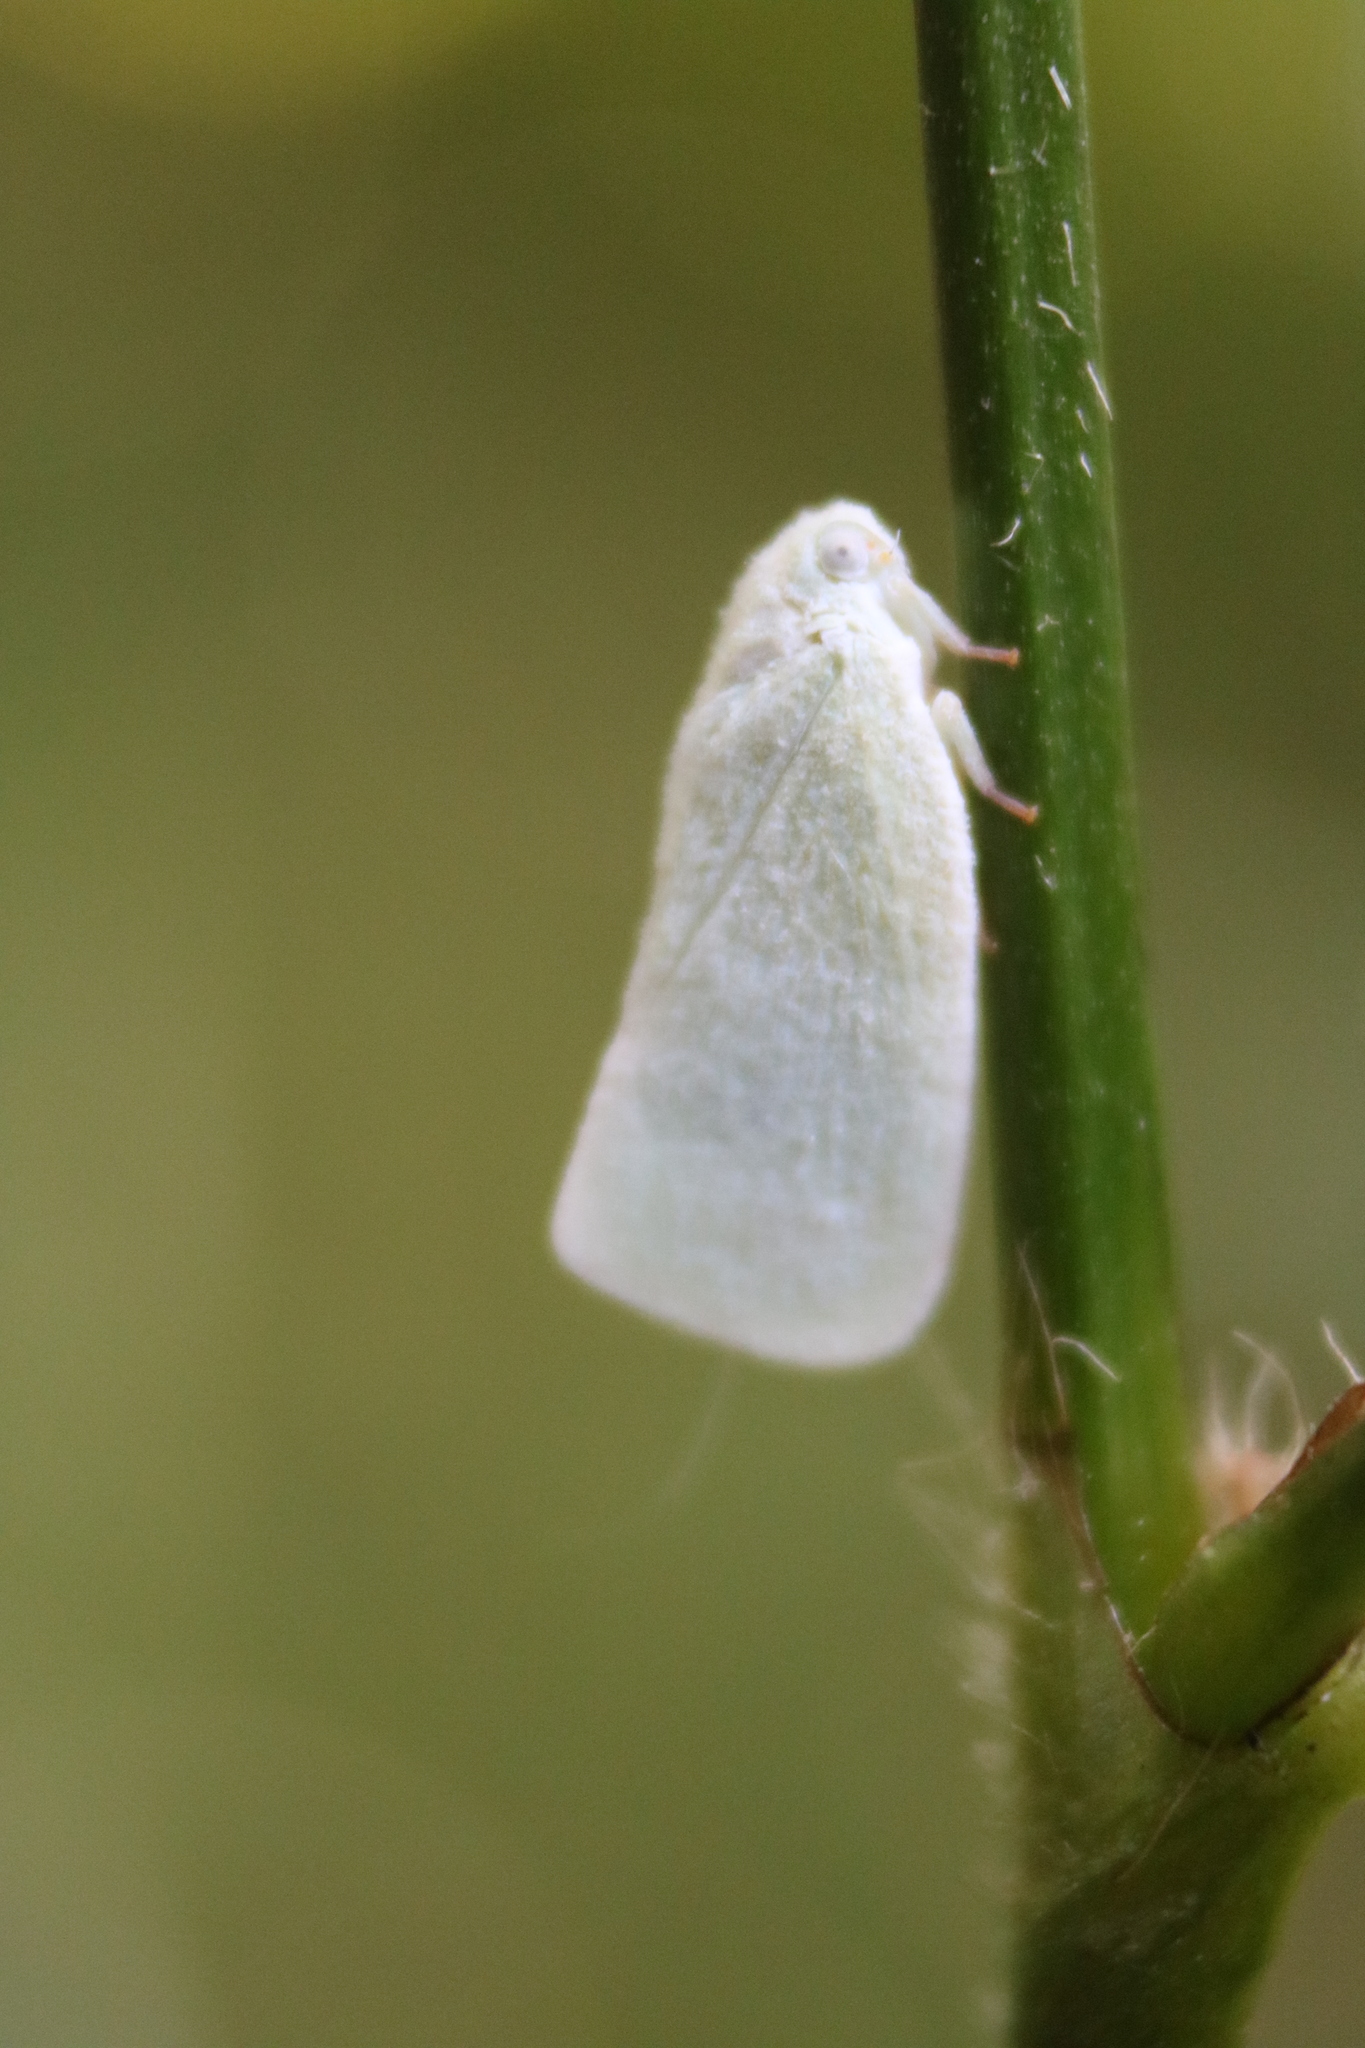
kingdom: Animalia
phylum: Arthropoda
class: Insecta
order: Hemiptera
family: Flatidae
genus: Flatormenis
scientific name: Flatormenis proxima
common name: Northern flatid planthopper
